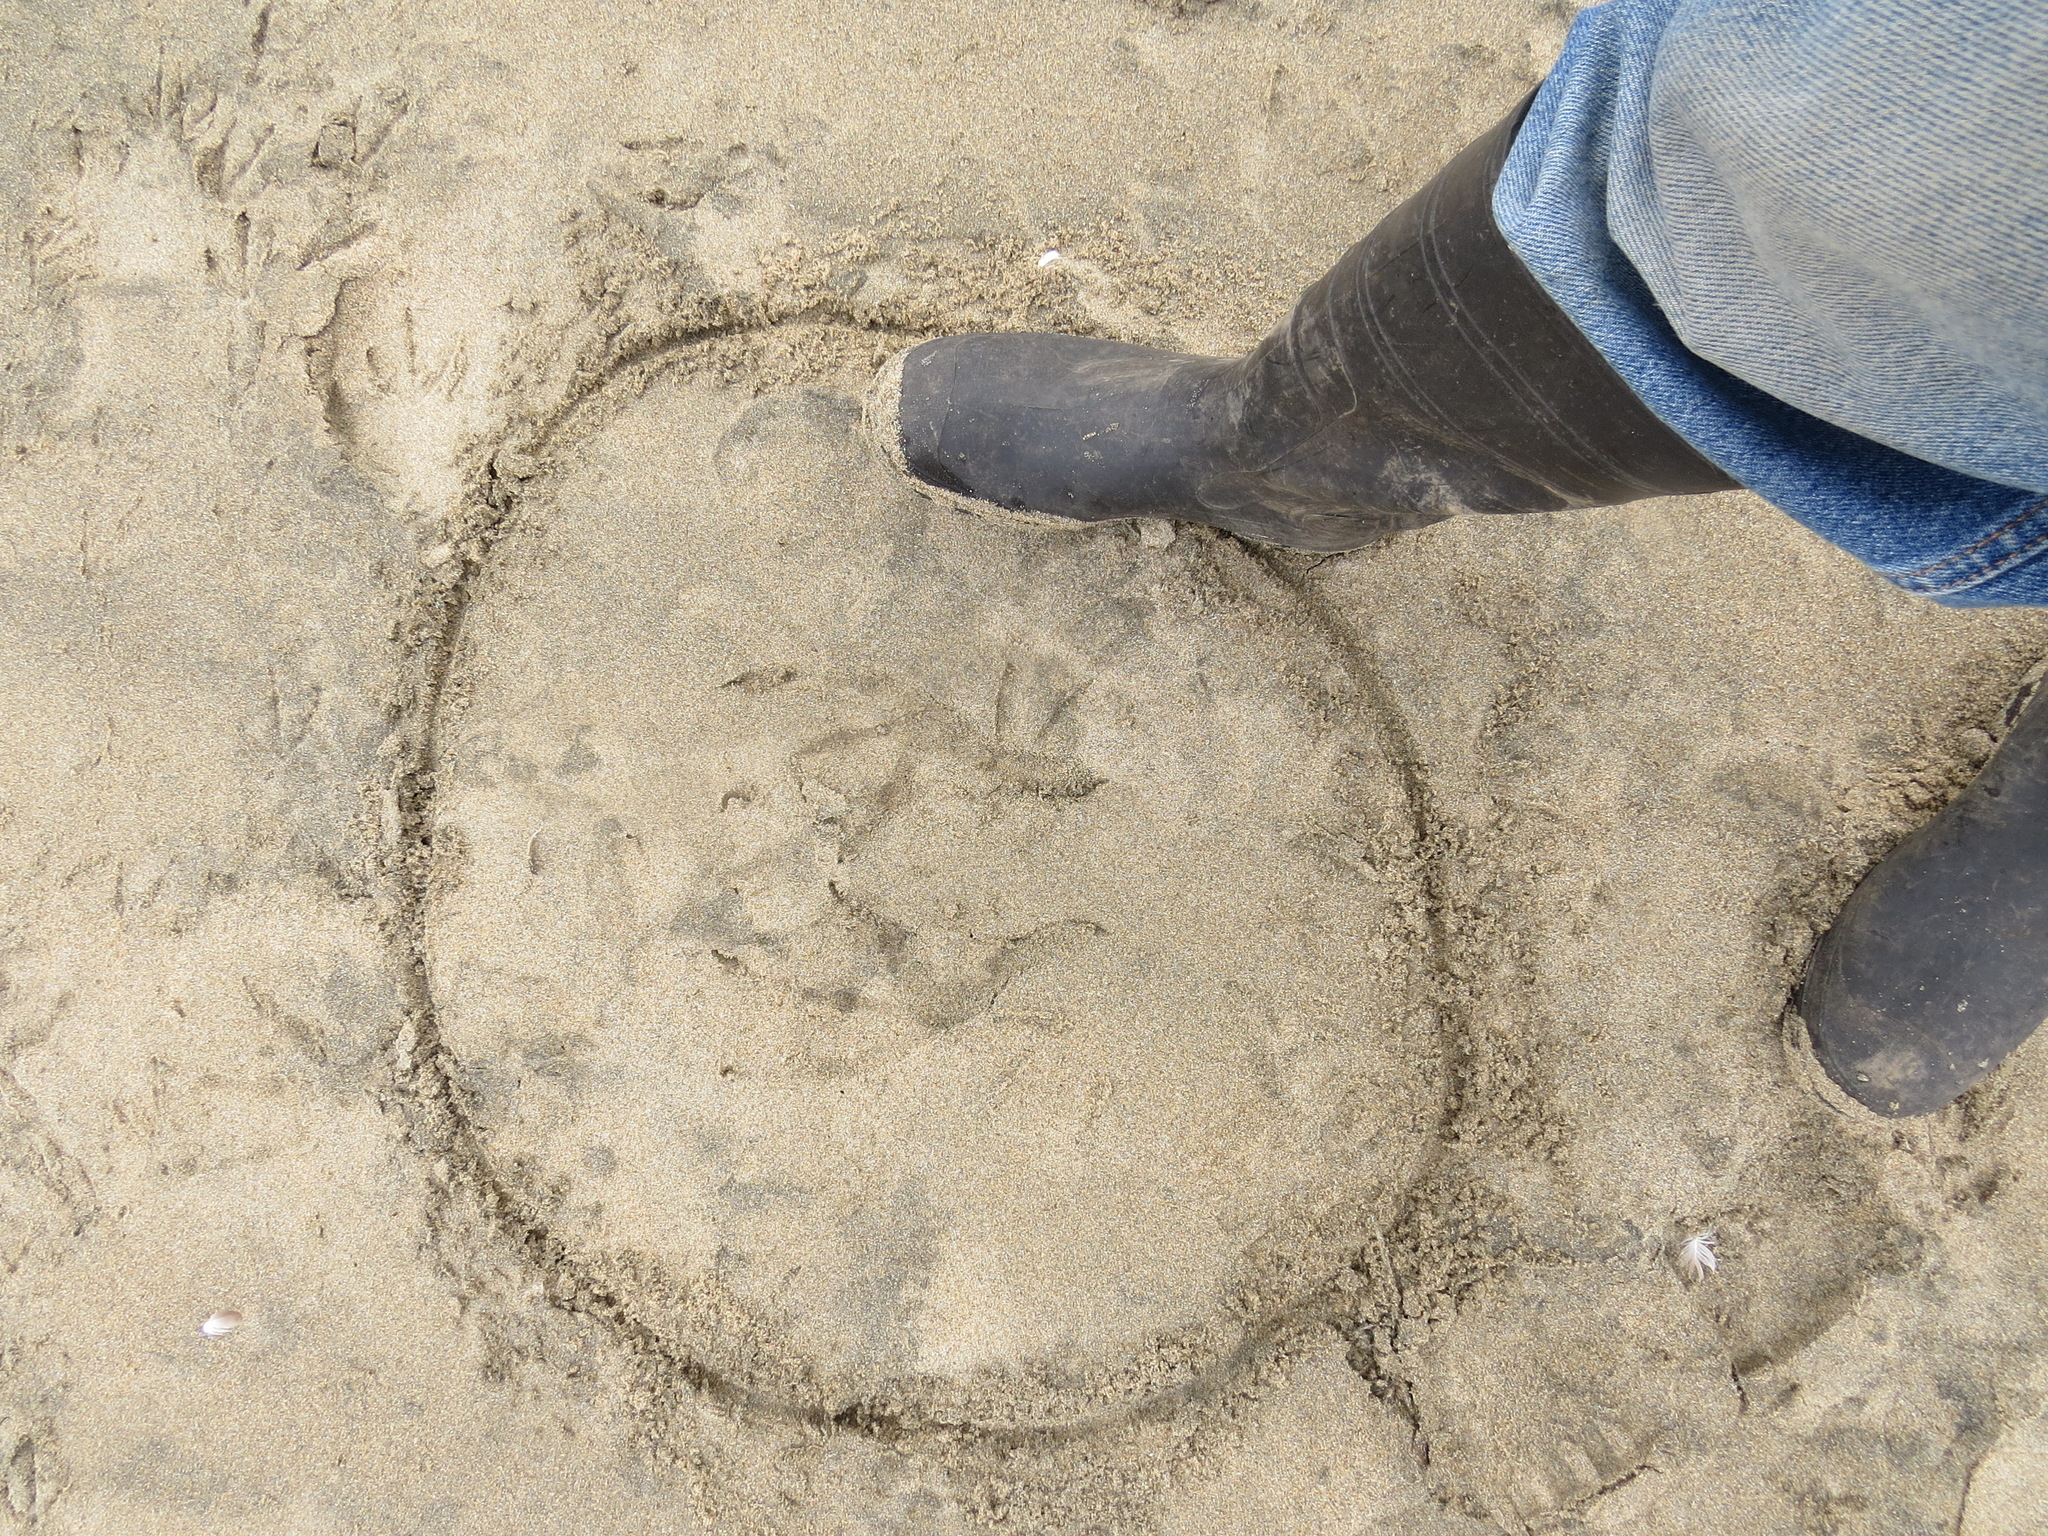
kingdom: Animalia
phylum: Chordata
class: Aves
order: Pelecaniformes
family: Pelecanidae
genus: Pelecanus
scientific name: Pelecanus occidentalis
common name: Brown pelican
